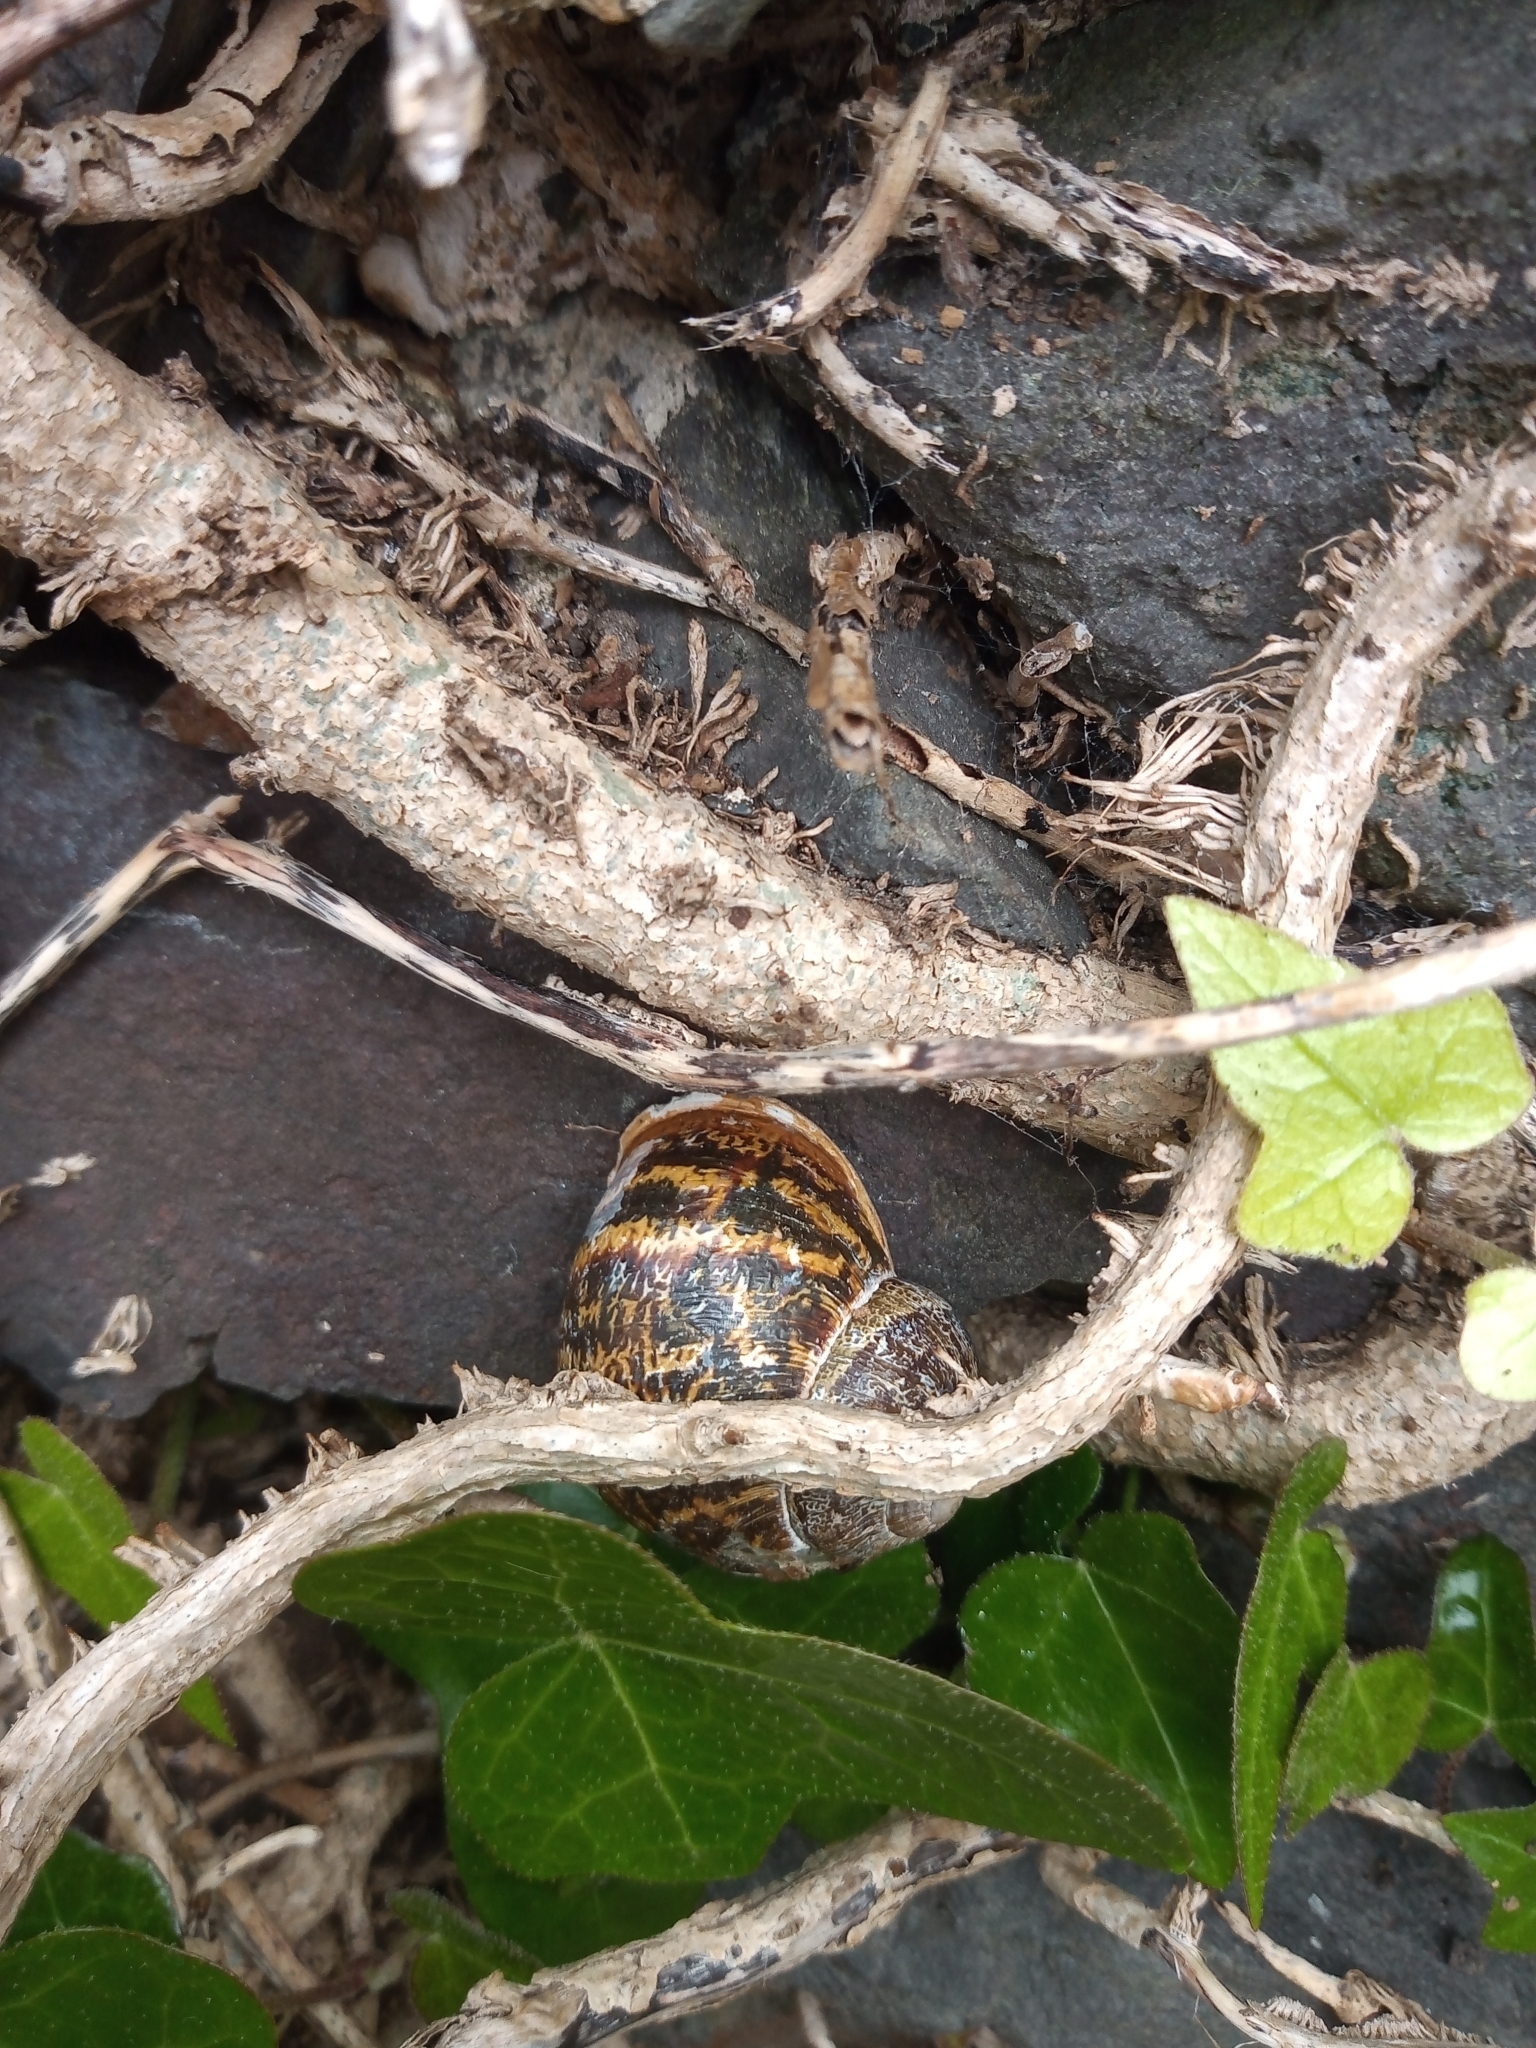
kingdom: Animalia
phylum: Mollusca
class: Gastropoda
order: Stylommatophora
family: Helicidae
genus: Cornu
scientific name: Cornu aspersum
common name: Brown garden snail
